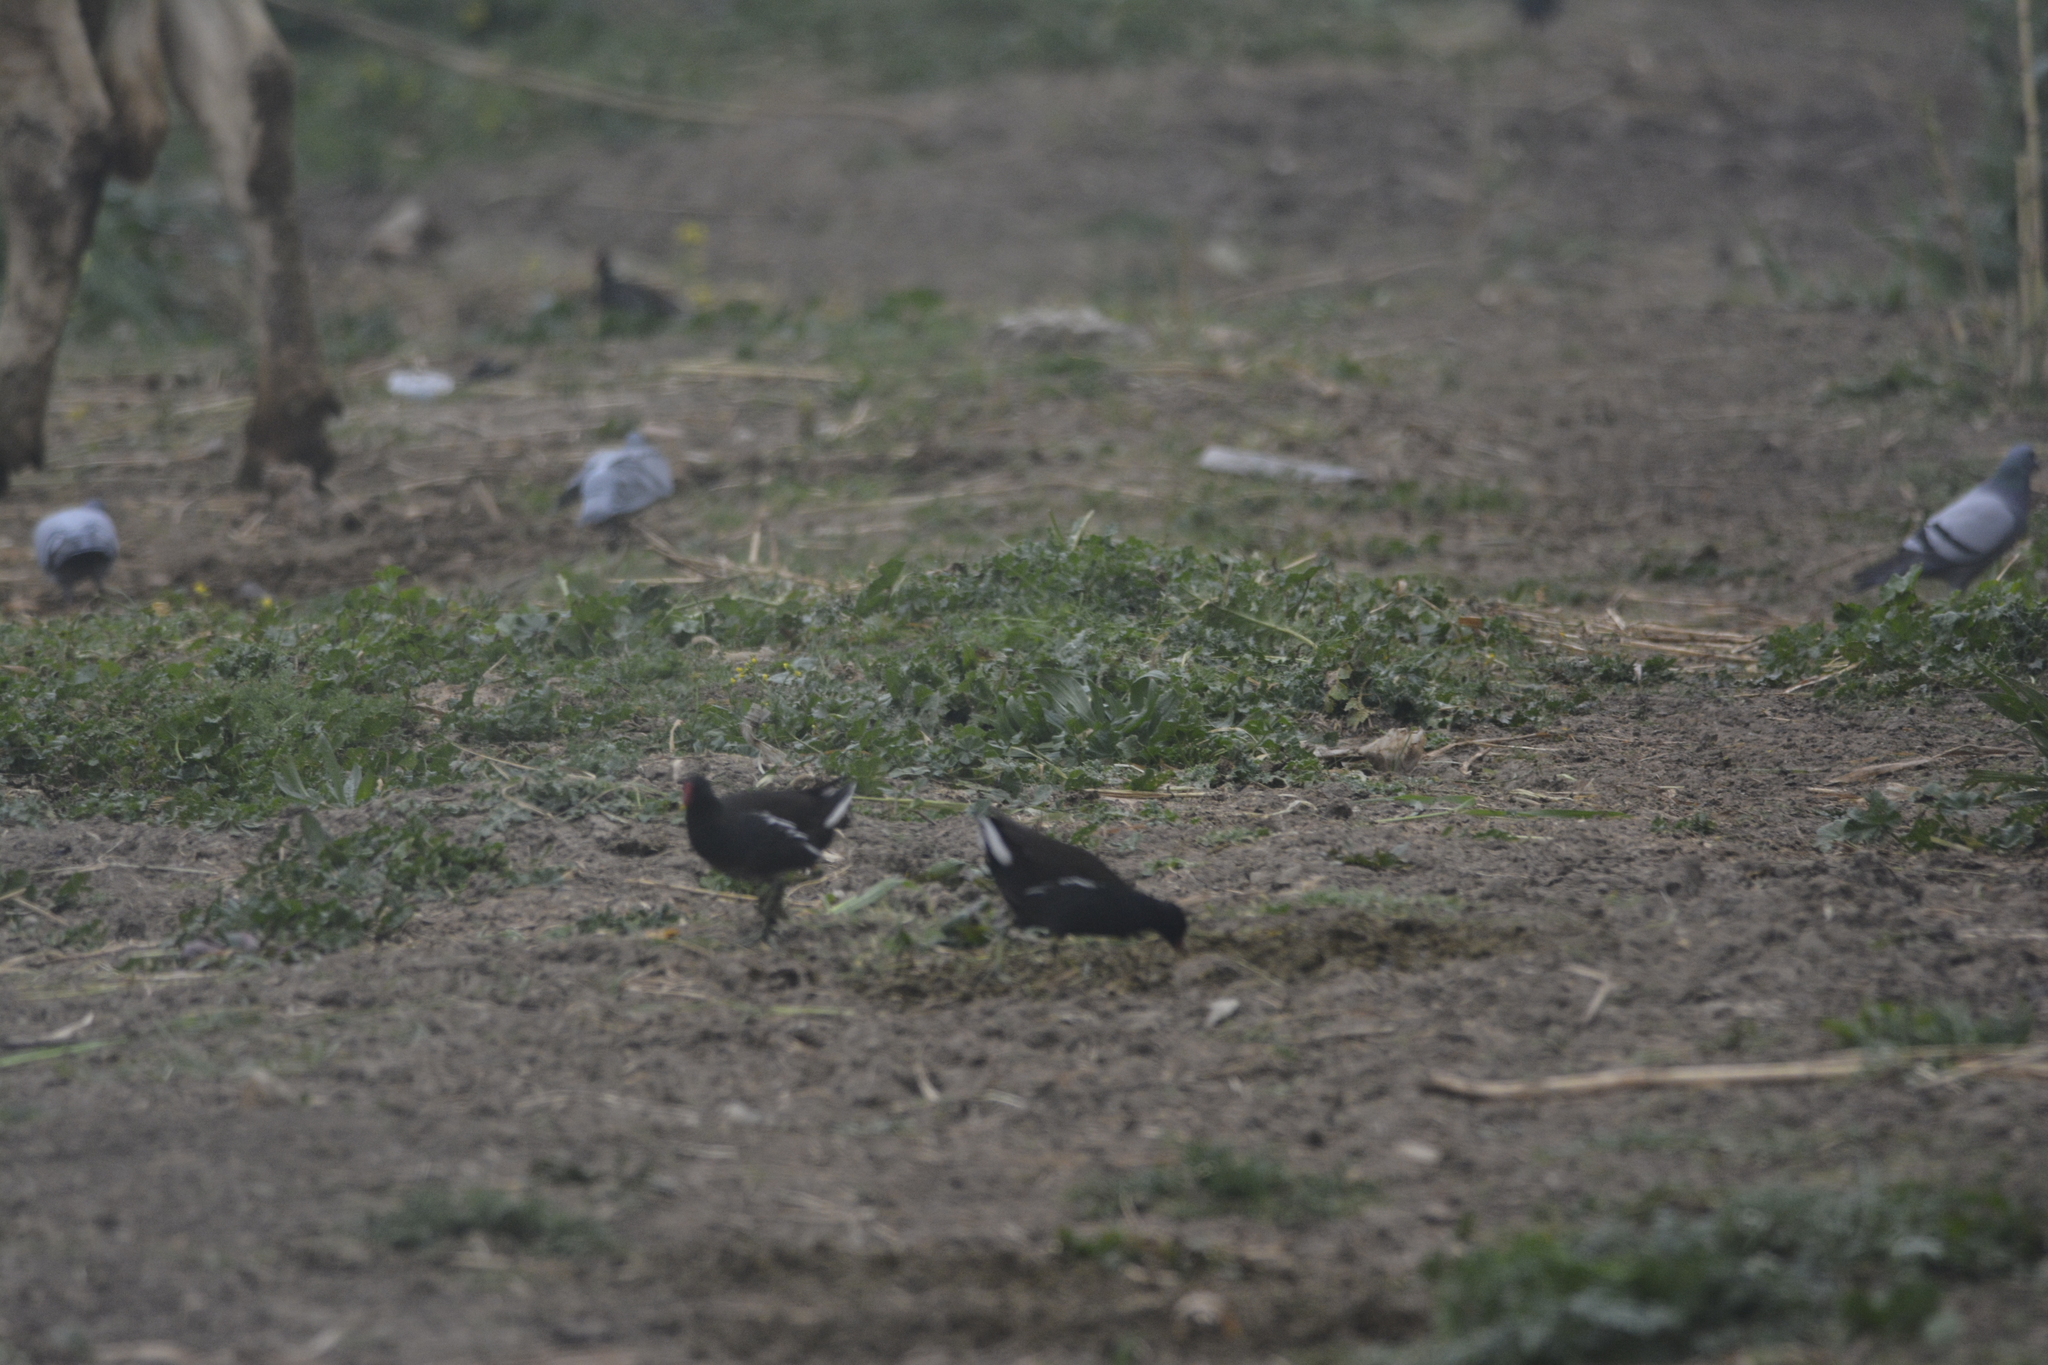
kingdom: Animalia
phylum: Chordata
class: Aves
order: Gruiformes
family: Rallidae
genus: Gallinula
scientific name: Gallinula chloropus
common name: Common moorhen
